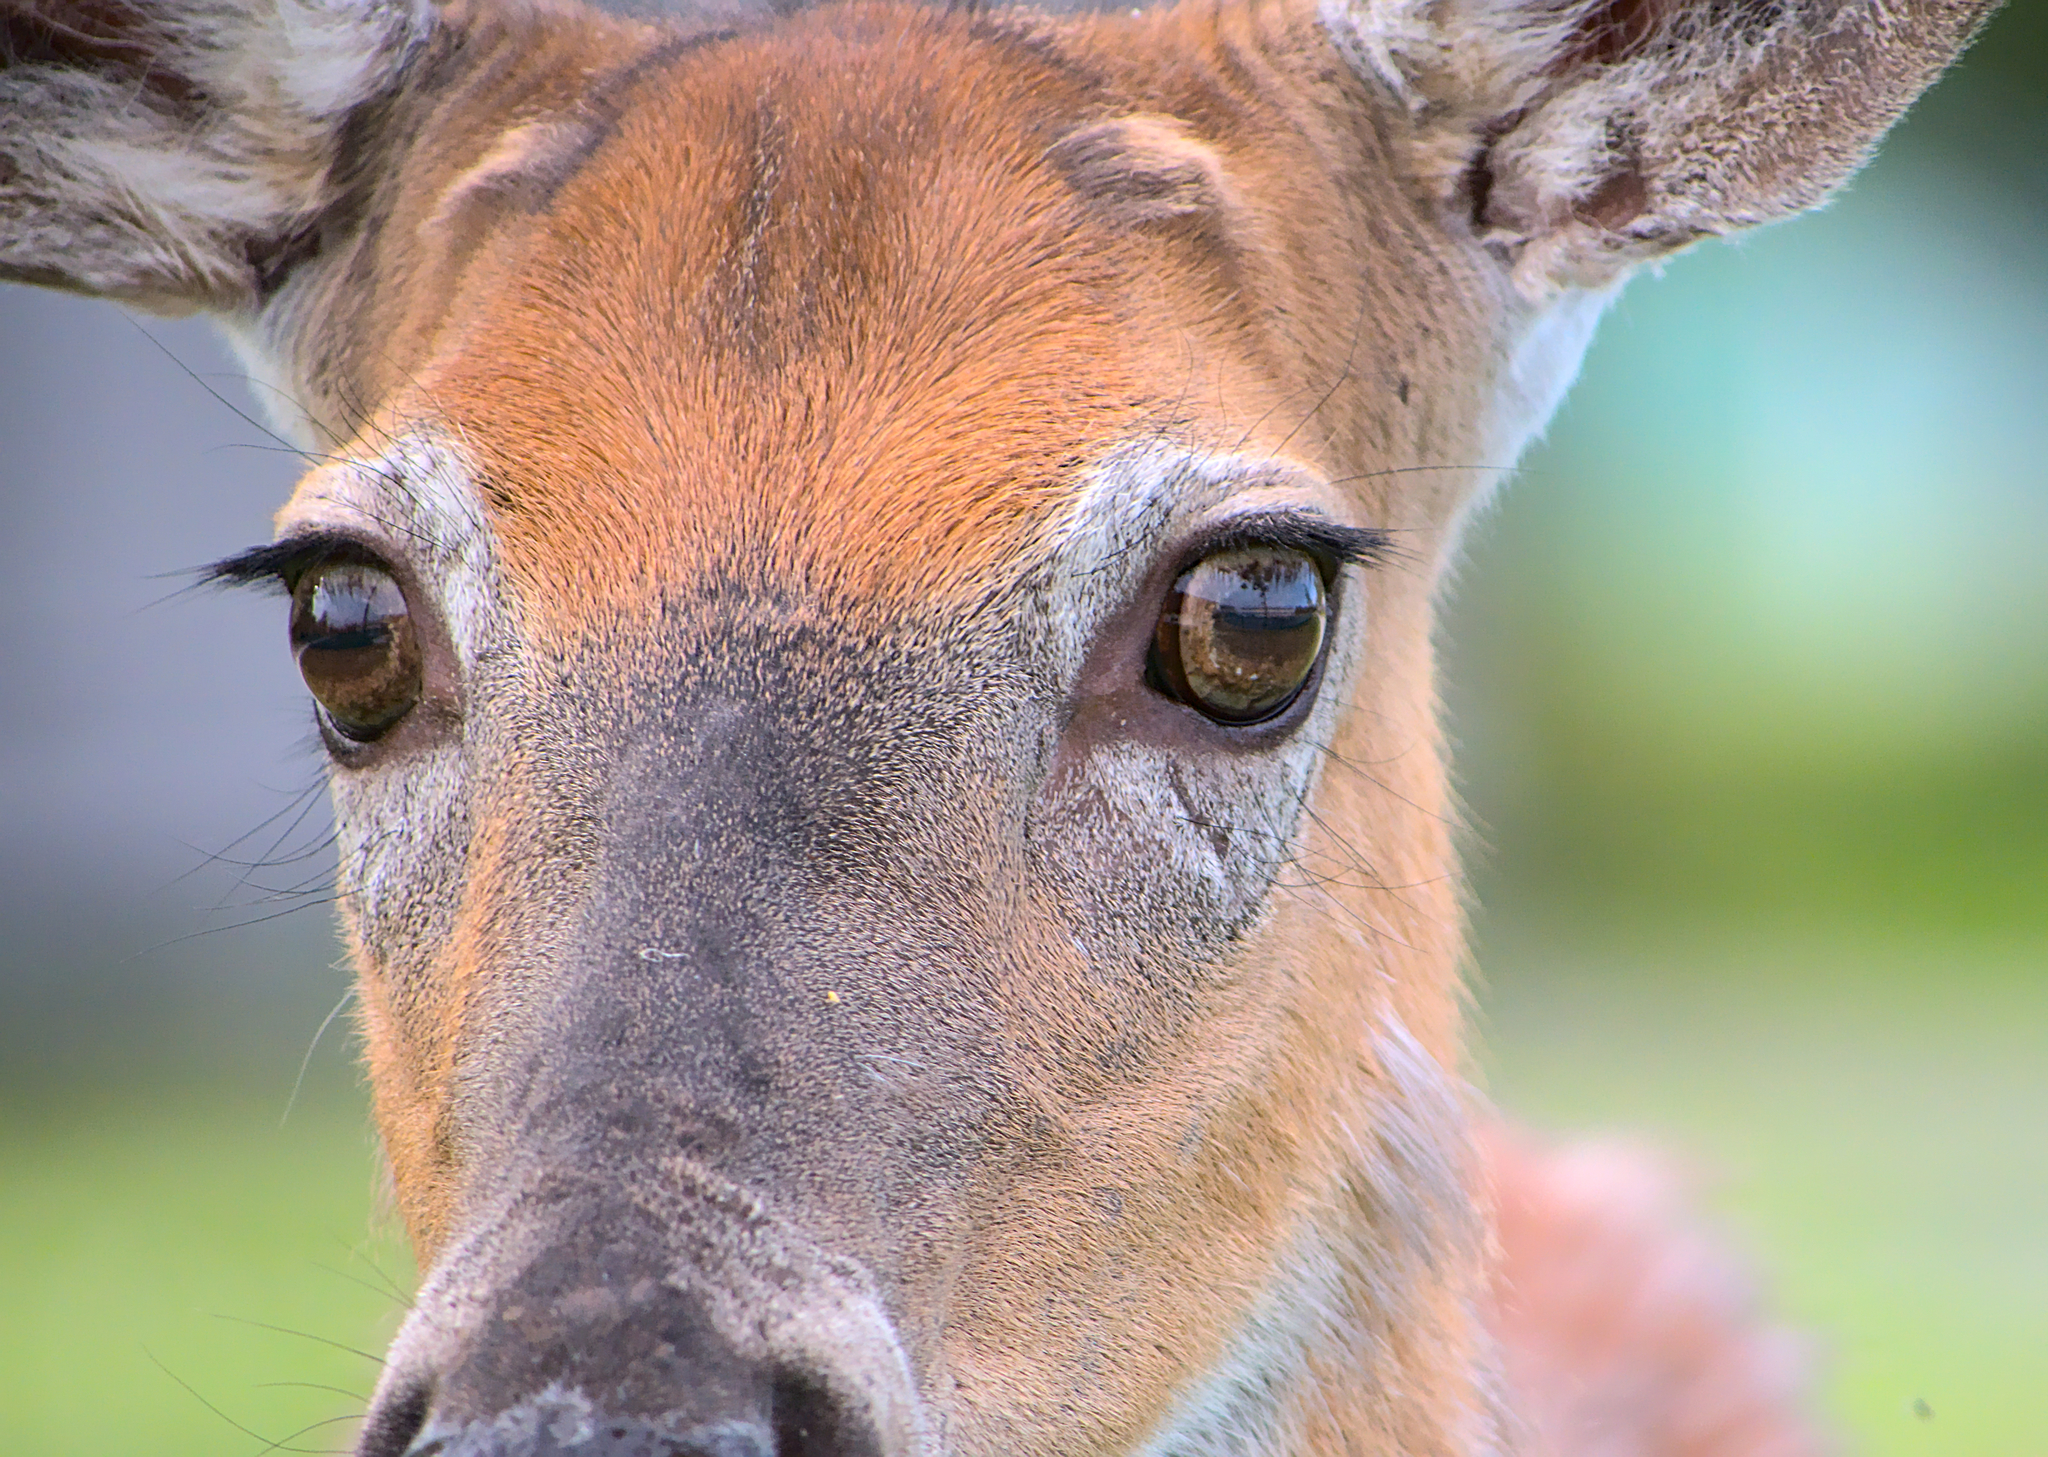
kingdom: Animalia
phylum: Chordata
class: Mammalia
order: Artiodactyla
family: Cervidae
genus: Odocoileus
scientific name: Odocoileus virginianus
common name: White-tailed deer
